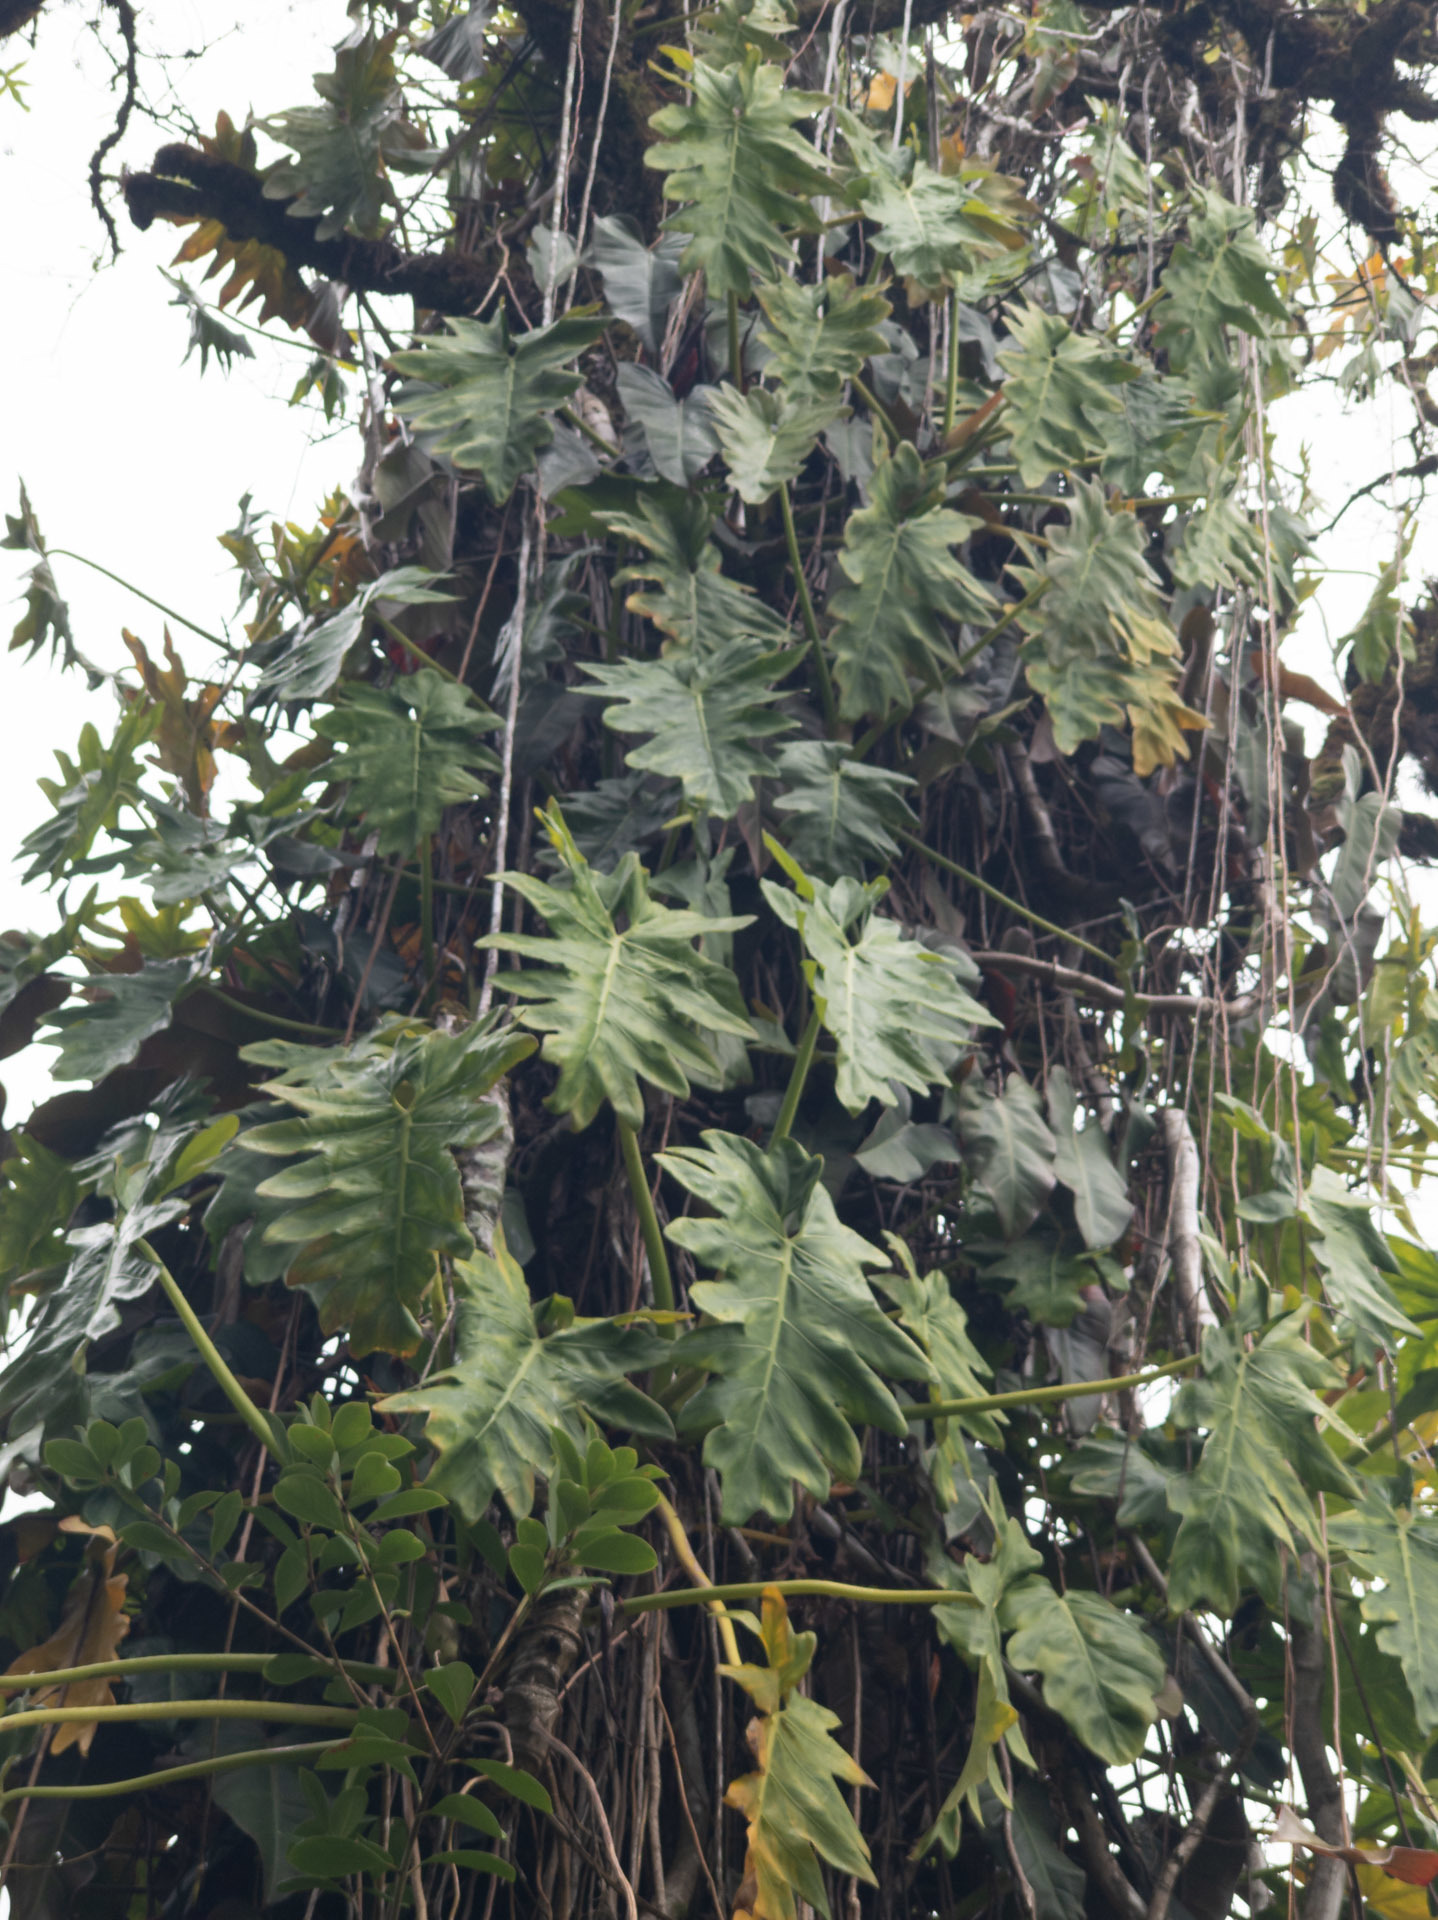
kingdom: Plantae
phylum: Tracheophyta
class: Liliopsida
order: Alismatales
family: Araceae
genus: Philodendron
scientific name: Philodendron lacerum
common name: Philodendron
